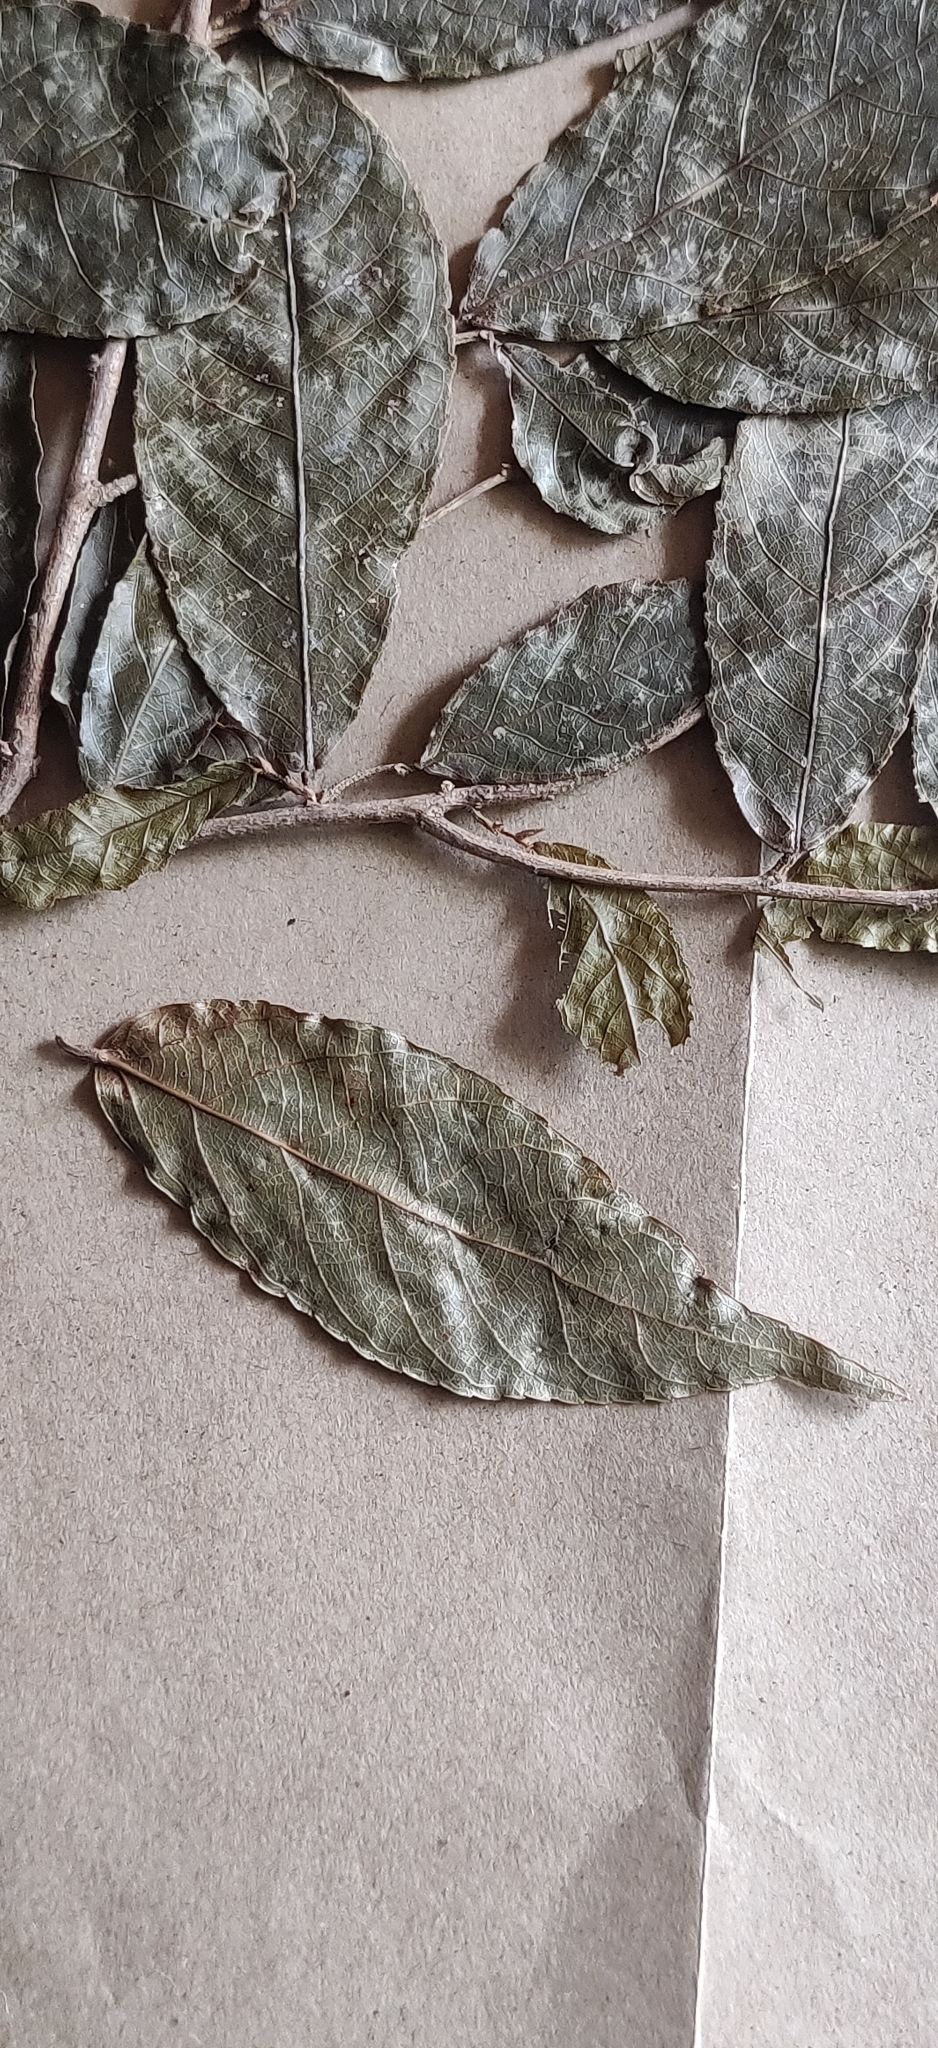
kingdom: Plantae
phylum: Tracheophyta
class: Magnoliopsida
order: Ericales
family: Sapotaceae
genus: Isonandra
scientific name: Isonandra lanceolata
